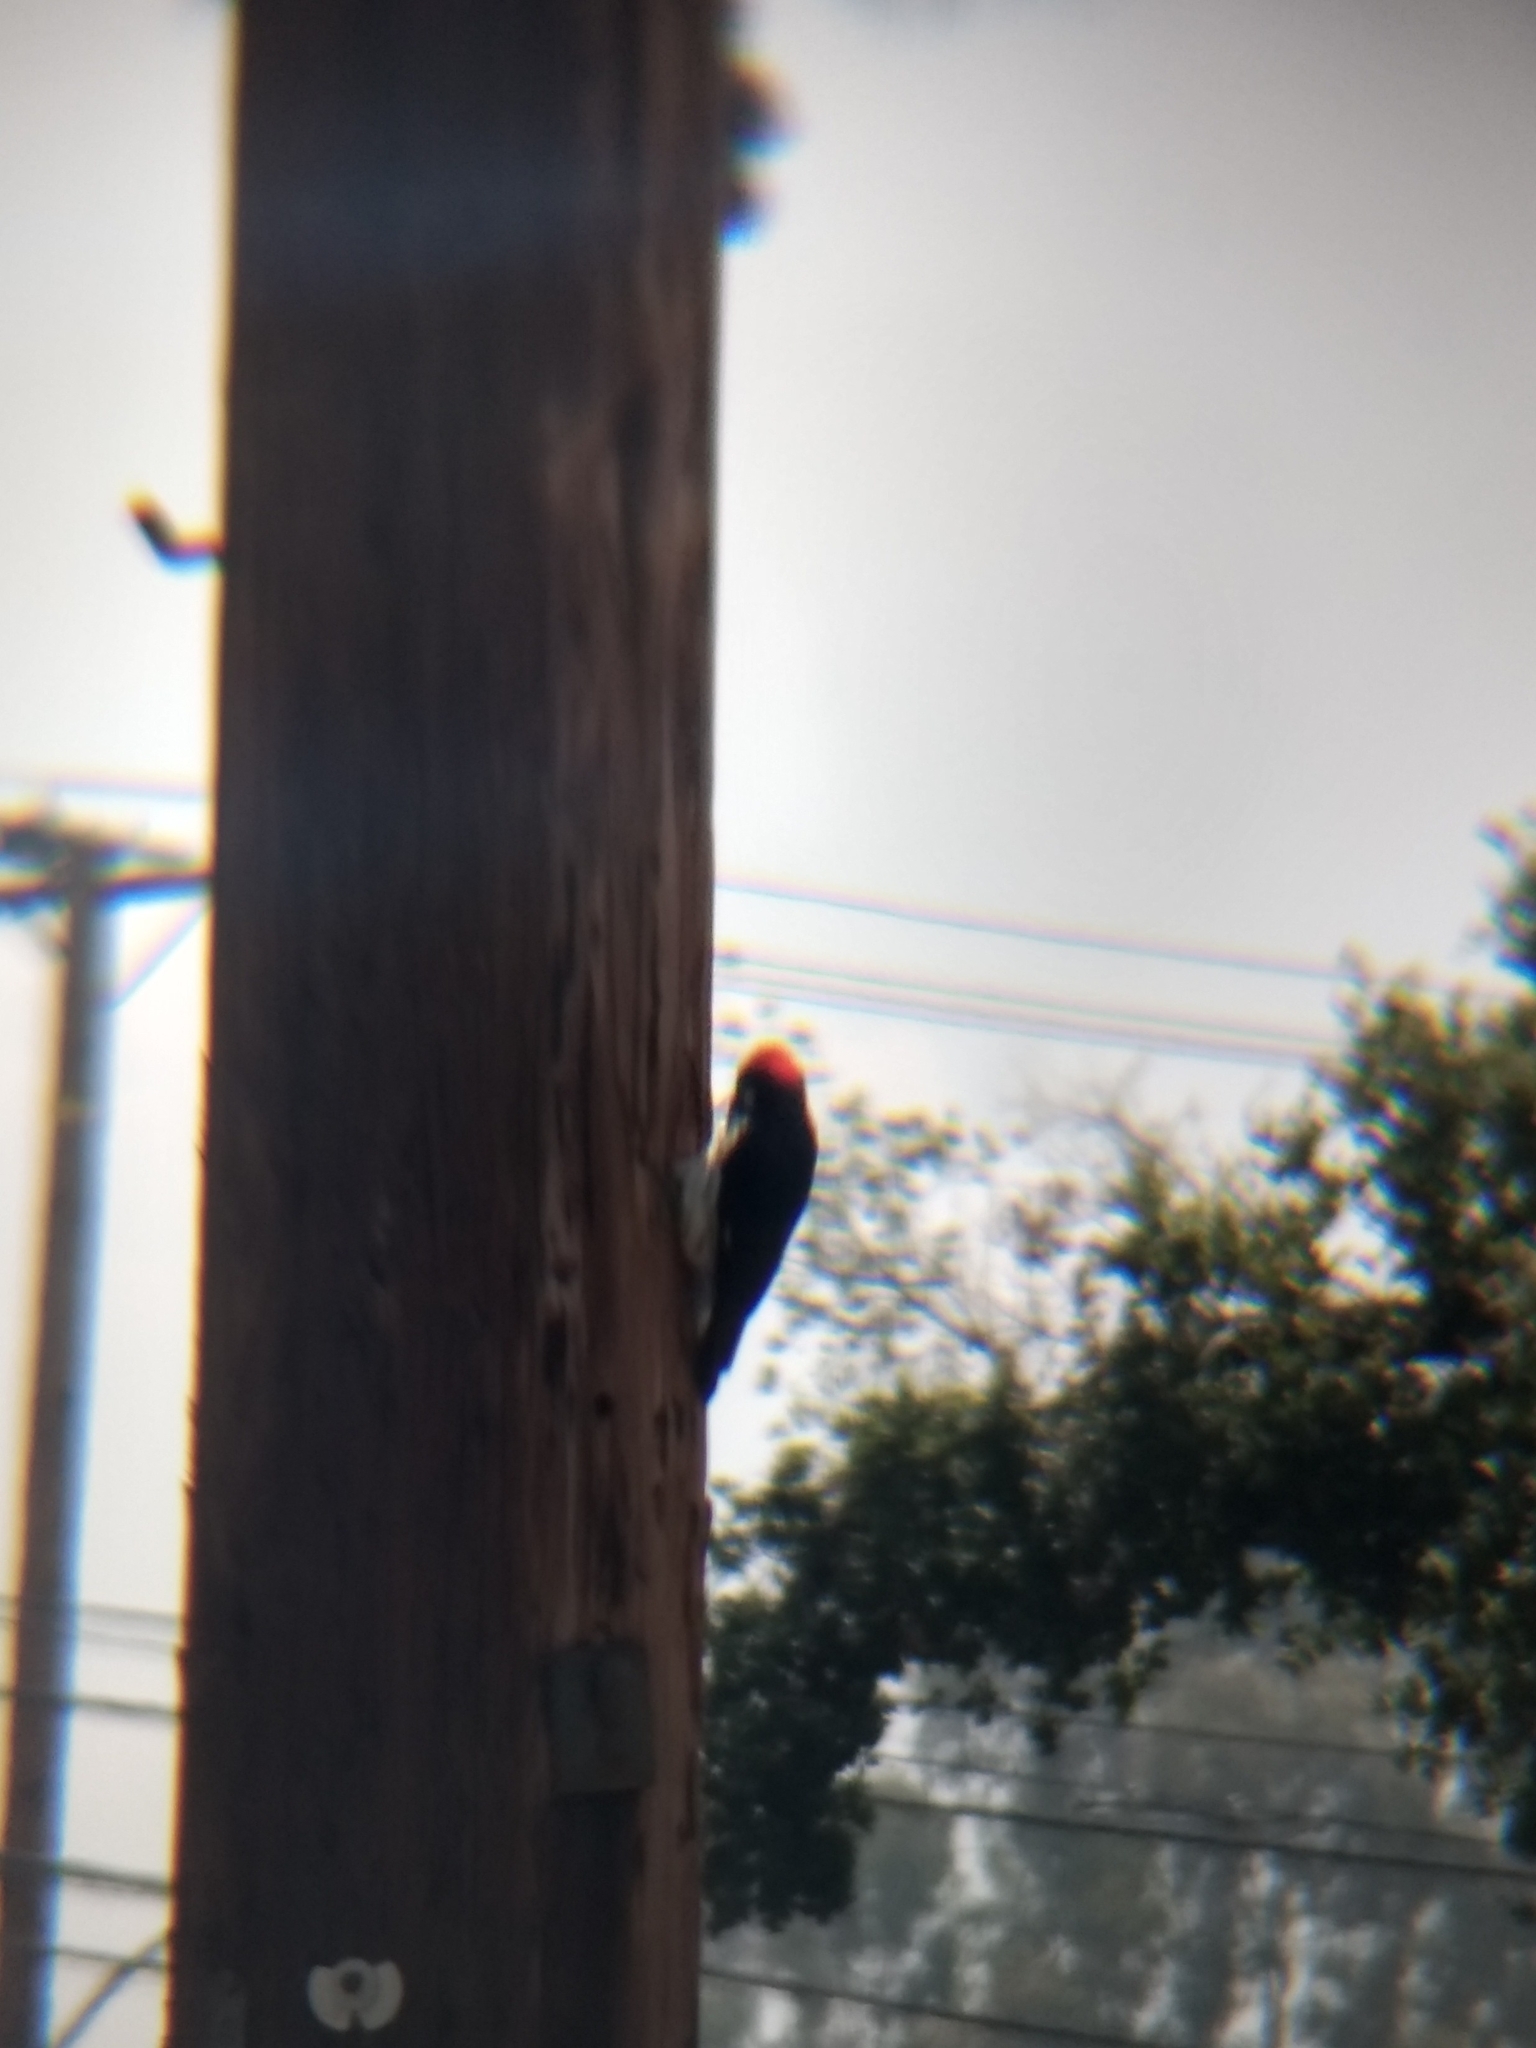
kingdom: Animalia
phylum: Chordata
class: Aves
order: Piciformes
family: Picidae
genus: Melanerpes
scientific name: Melanerpes formicivorus
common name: Acorn woodpecker
